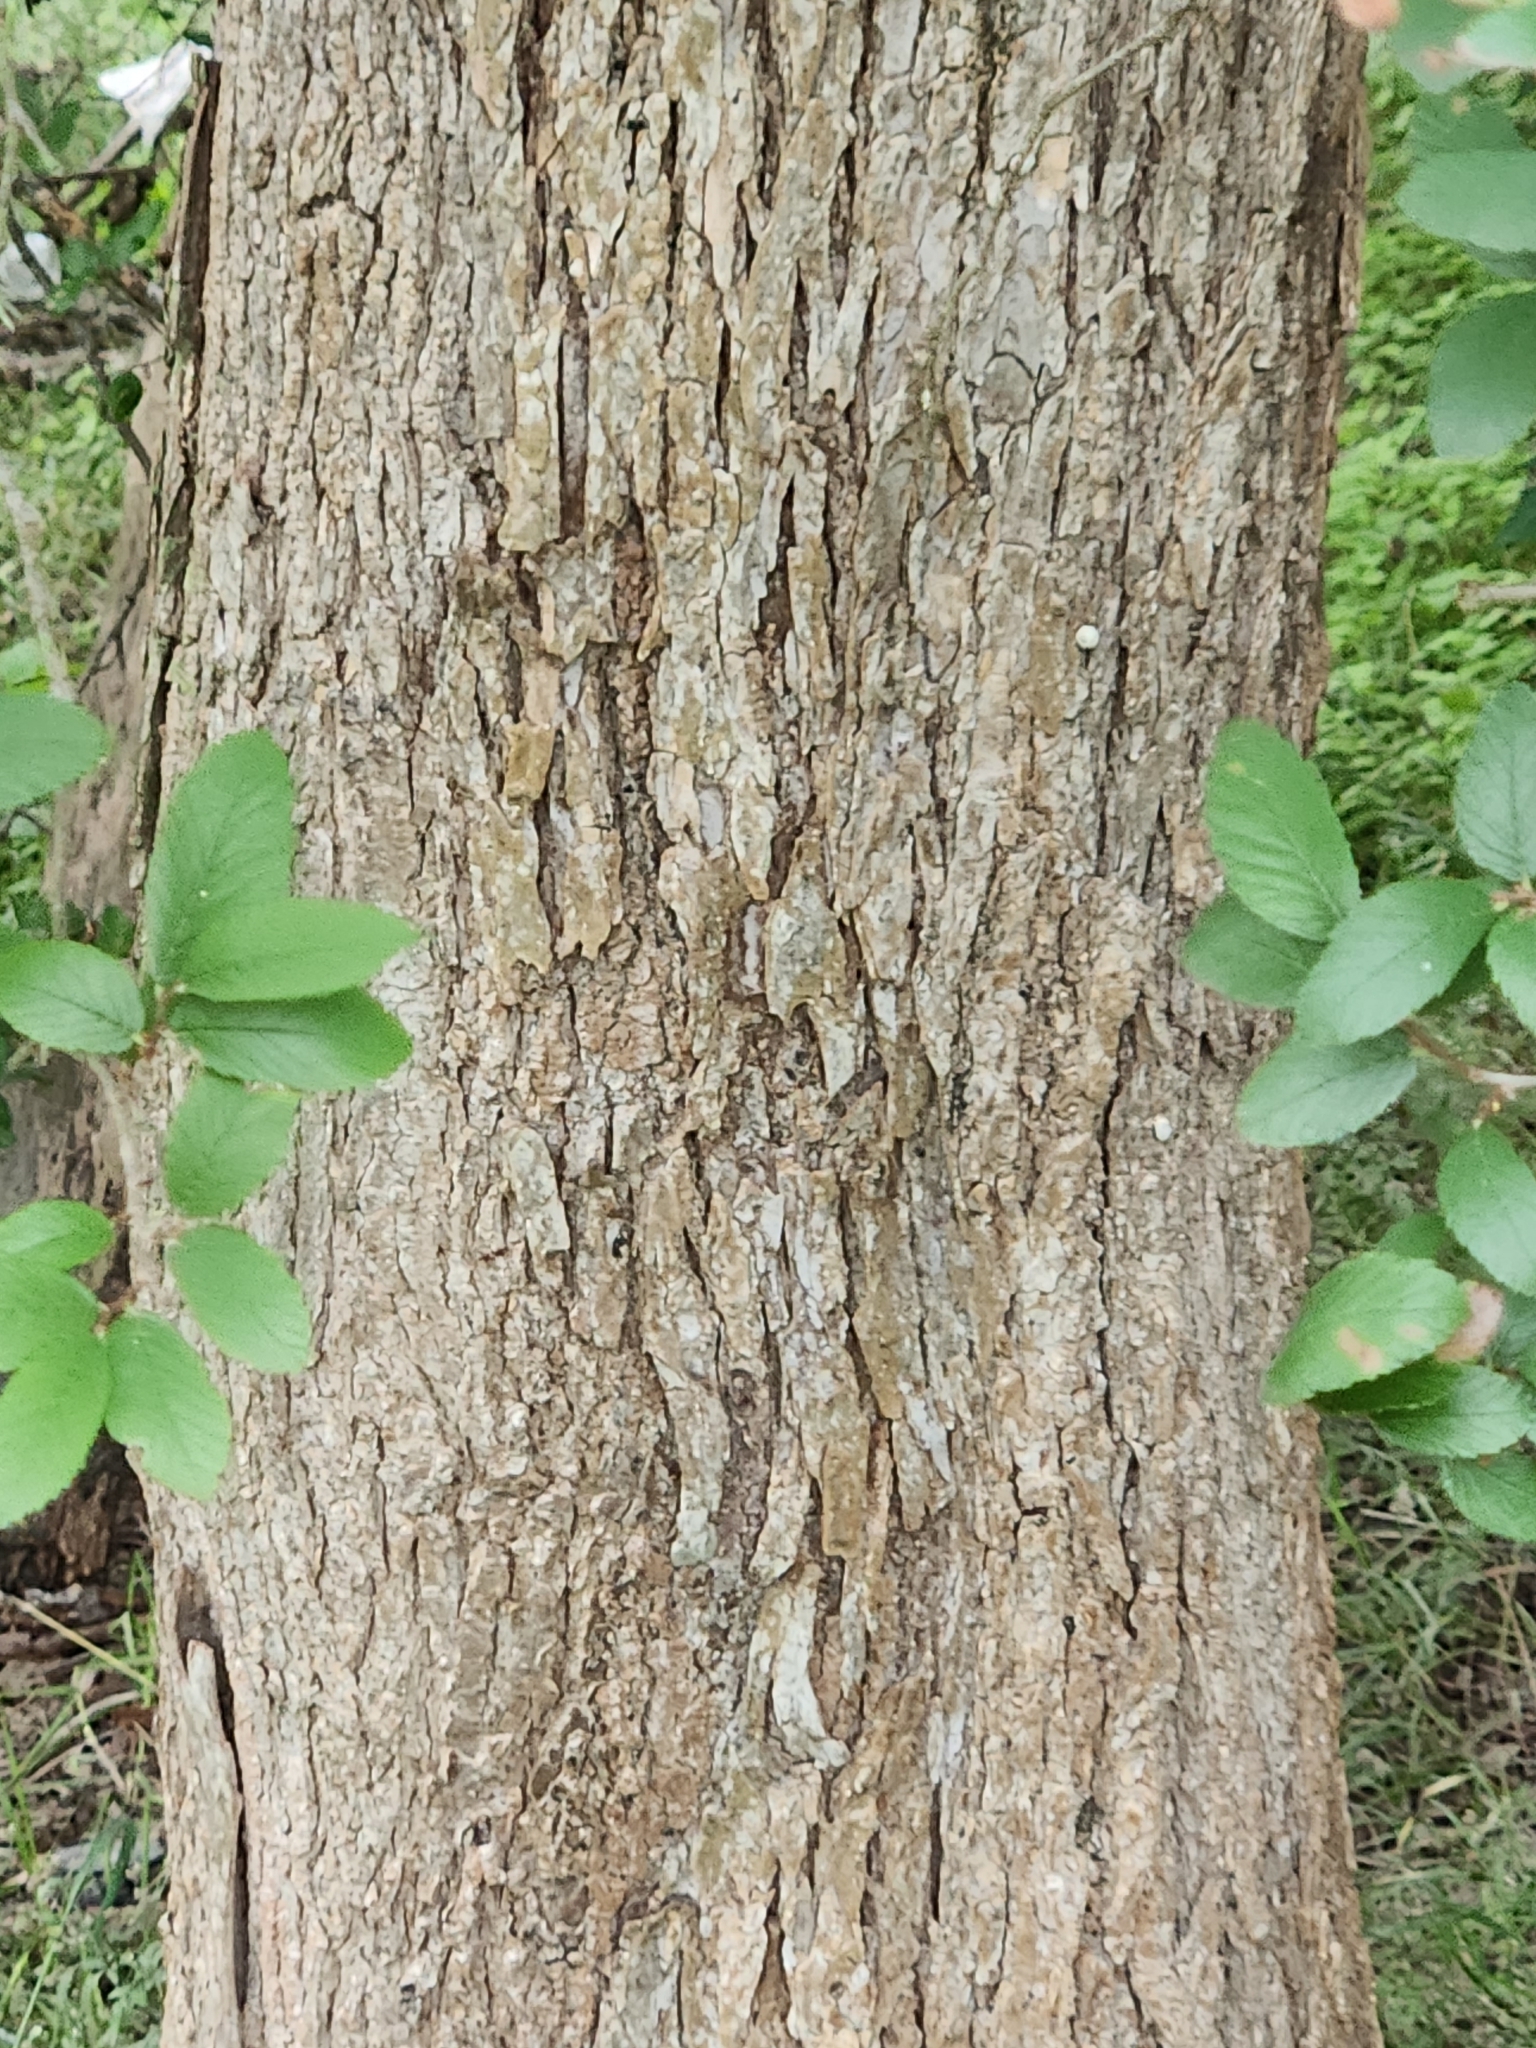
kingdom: Plantae
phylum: Tracheophyta
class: Magnoliopsida
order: Rosales
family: Ulmaceae
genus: Ulmus
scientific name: Ulmus crassifolia
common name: Basket elm
